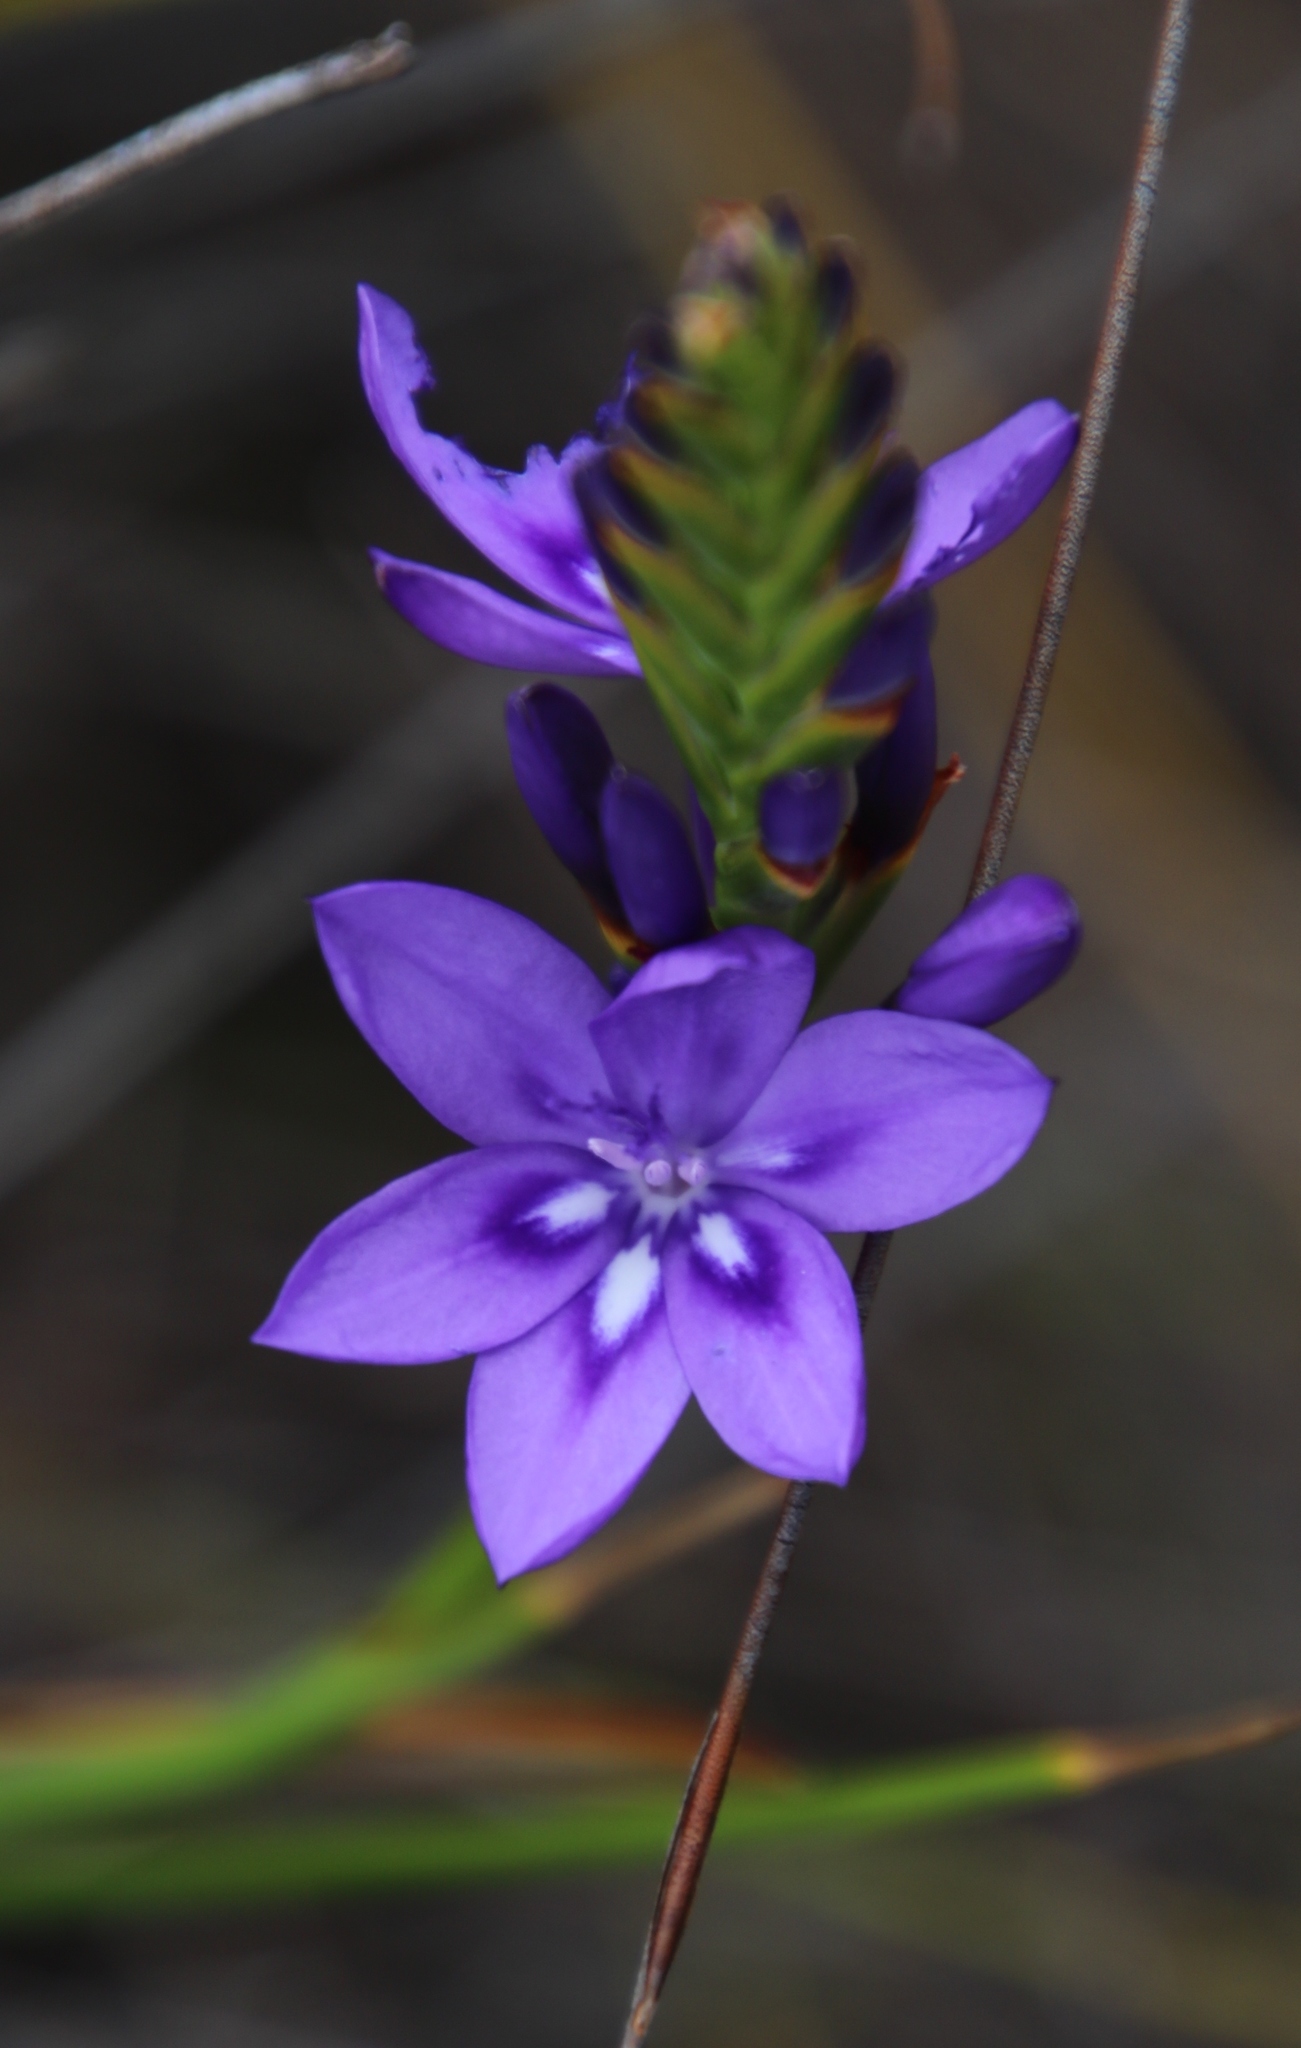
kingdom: Plantae
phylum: Tracheophyta
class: Liliopsida
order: Asparagales
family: Iridaceae
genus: Thereianthus
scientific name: Thereianthus bracteolatus
